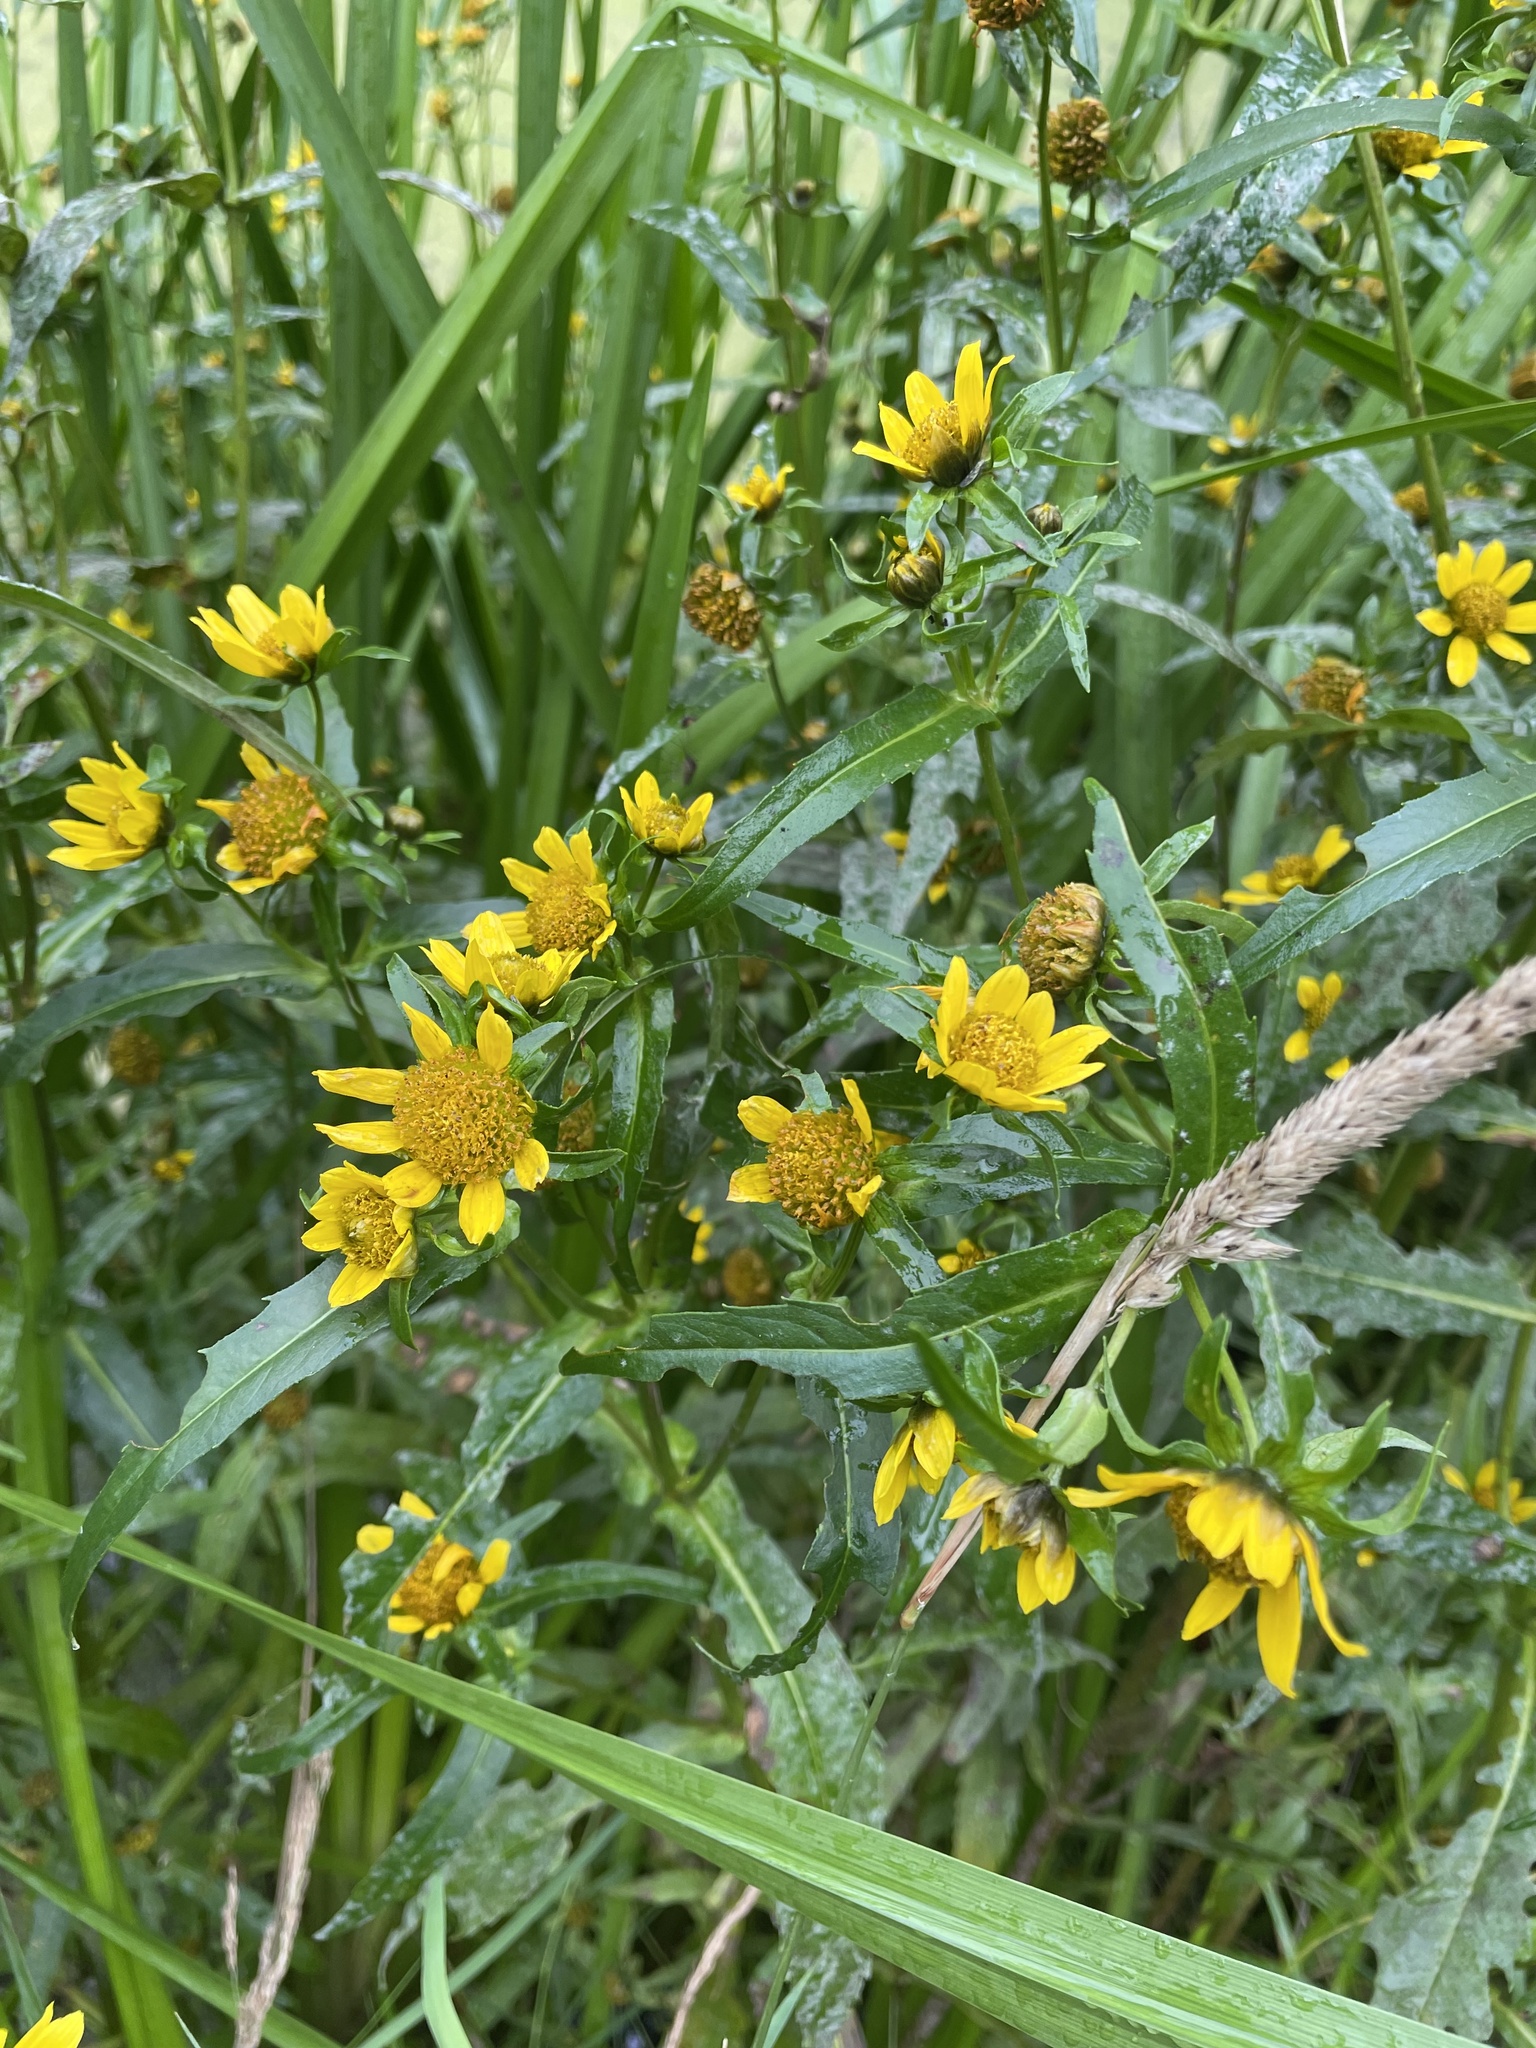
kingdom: Plantae
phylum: Tracheophyta
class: Magnoliopsida
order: Asterales
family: Asteraceae
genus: Bidens
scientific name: Bidens cernua
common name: Nodding bur-marigold
